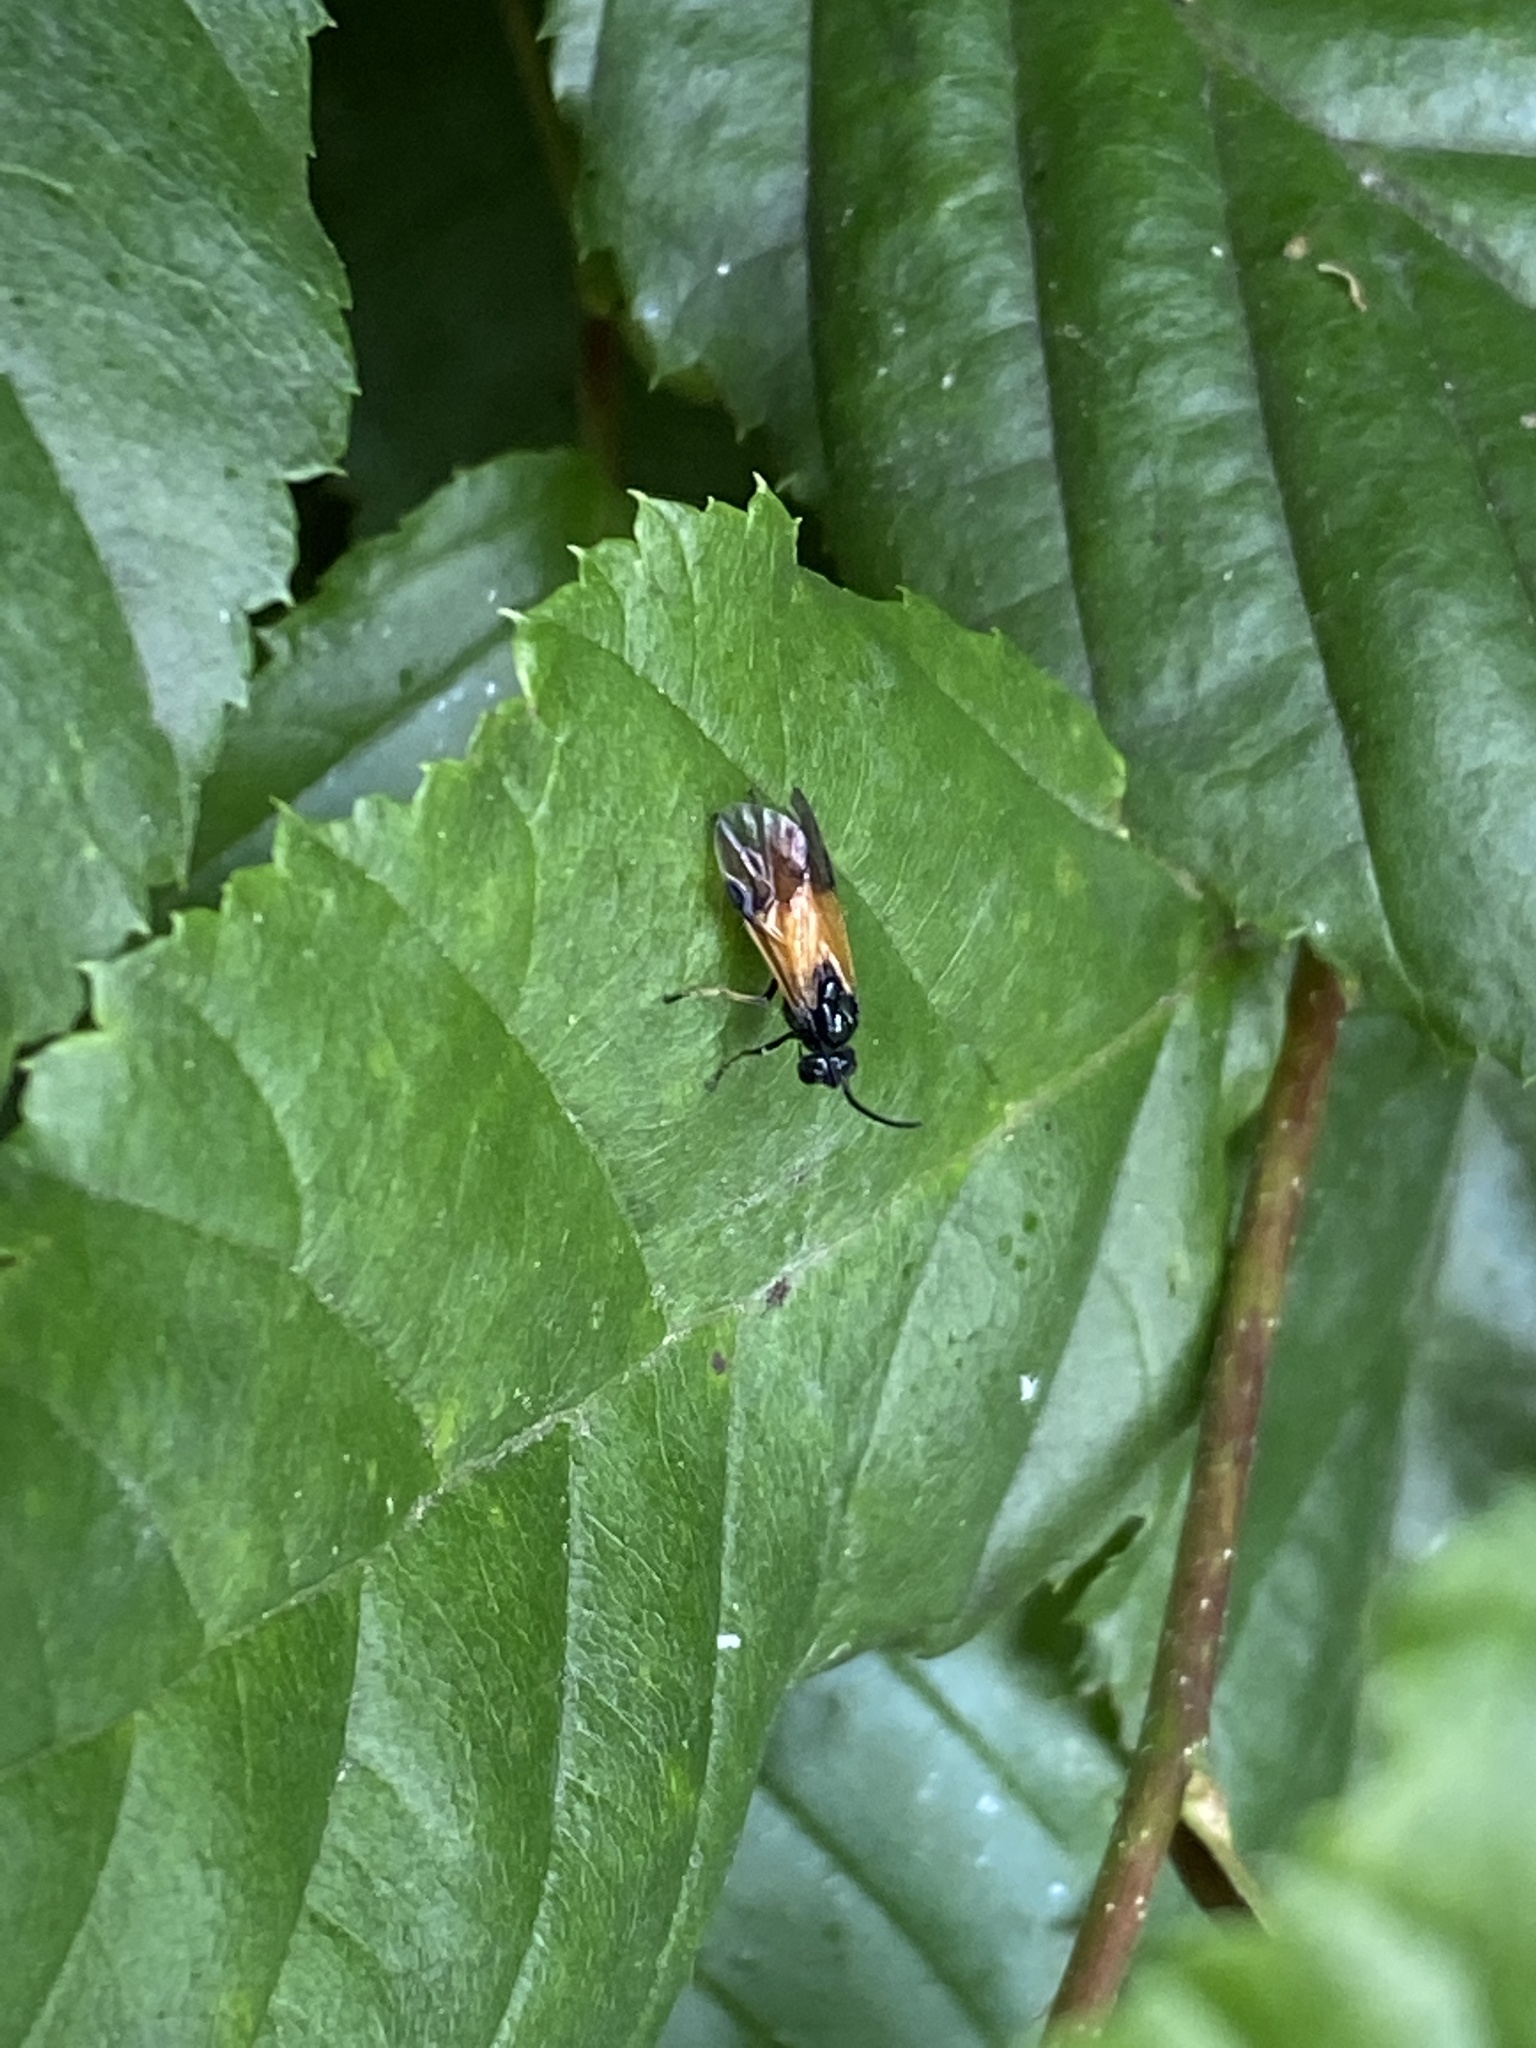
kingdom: Animalia
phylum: Arthropoda
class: Insecta
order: Hymenoptera
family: Argidae
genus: Arge
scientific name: Arge cyanocrocea
